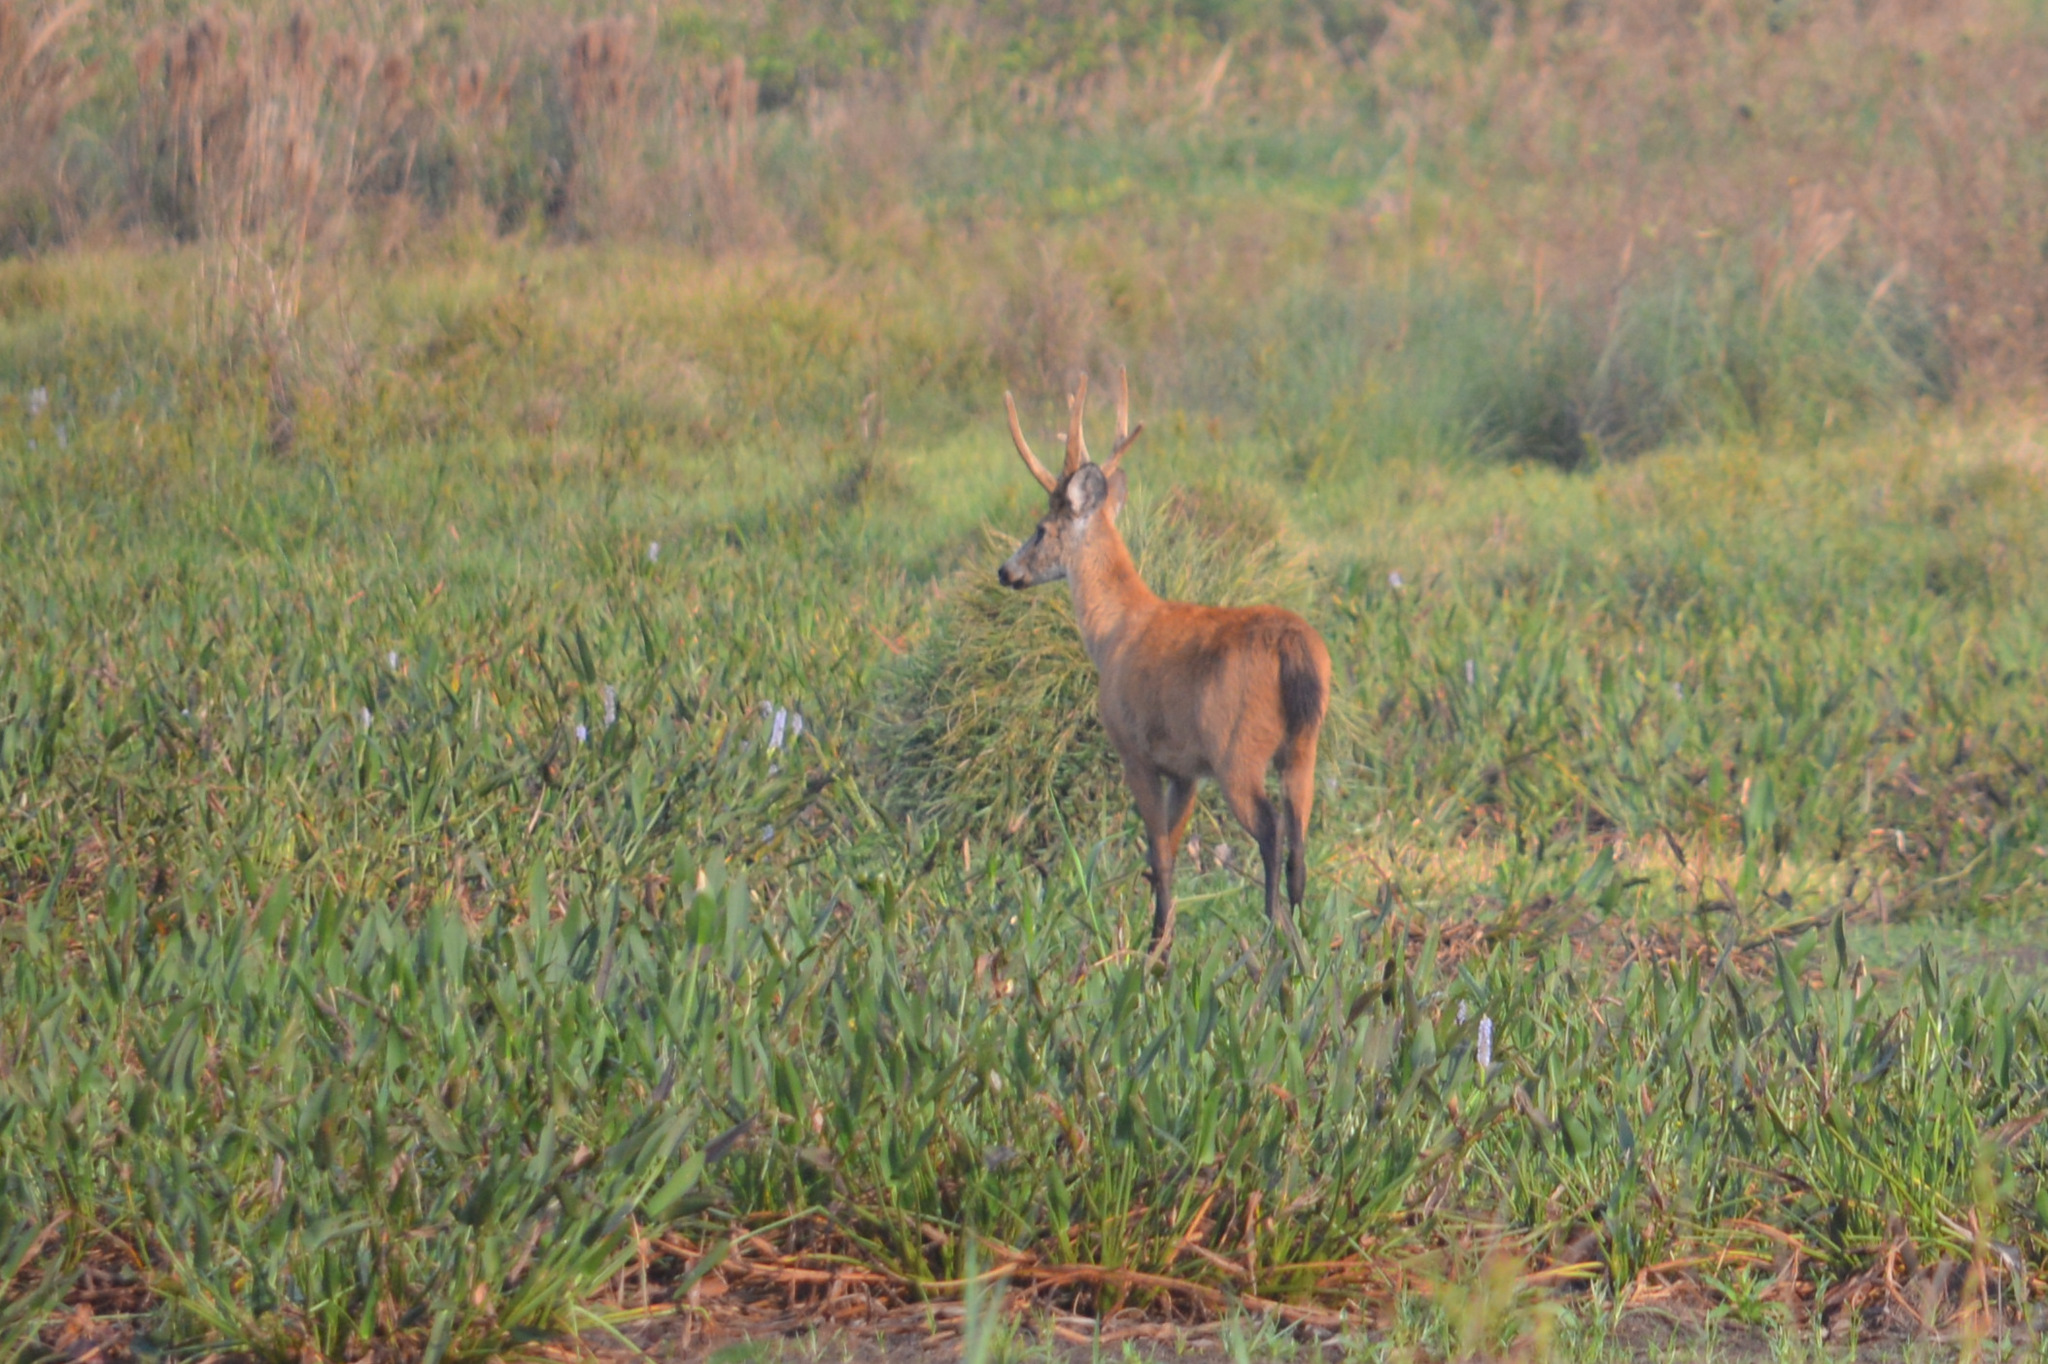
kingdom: Animalia
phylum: Chordata
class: Mammalia
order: Artiodactyla
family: Cervidae
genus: Blastocerus
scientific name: Blastocerus dichotomus
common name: Marsh deer
